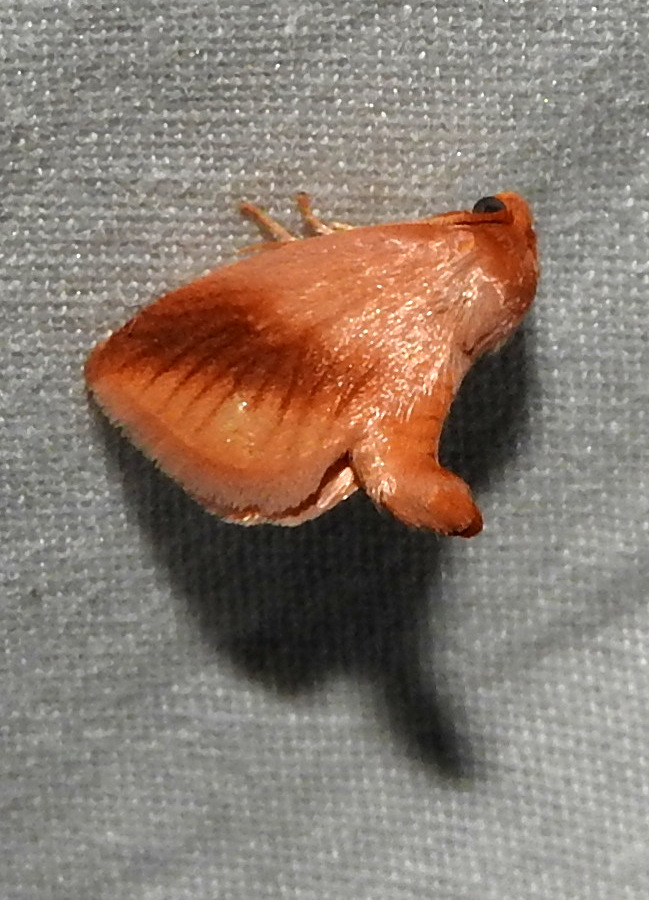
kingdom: Animalia
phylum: Arthropoda
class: Insecta
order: Lepidoptera
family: Limacodidae
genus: Tortricidia
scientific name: Tortricidia testacea
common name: Early button slug moth
